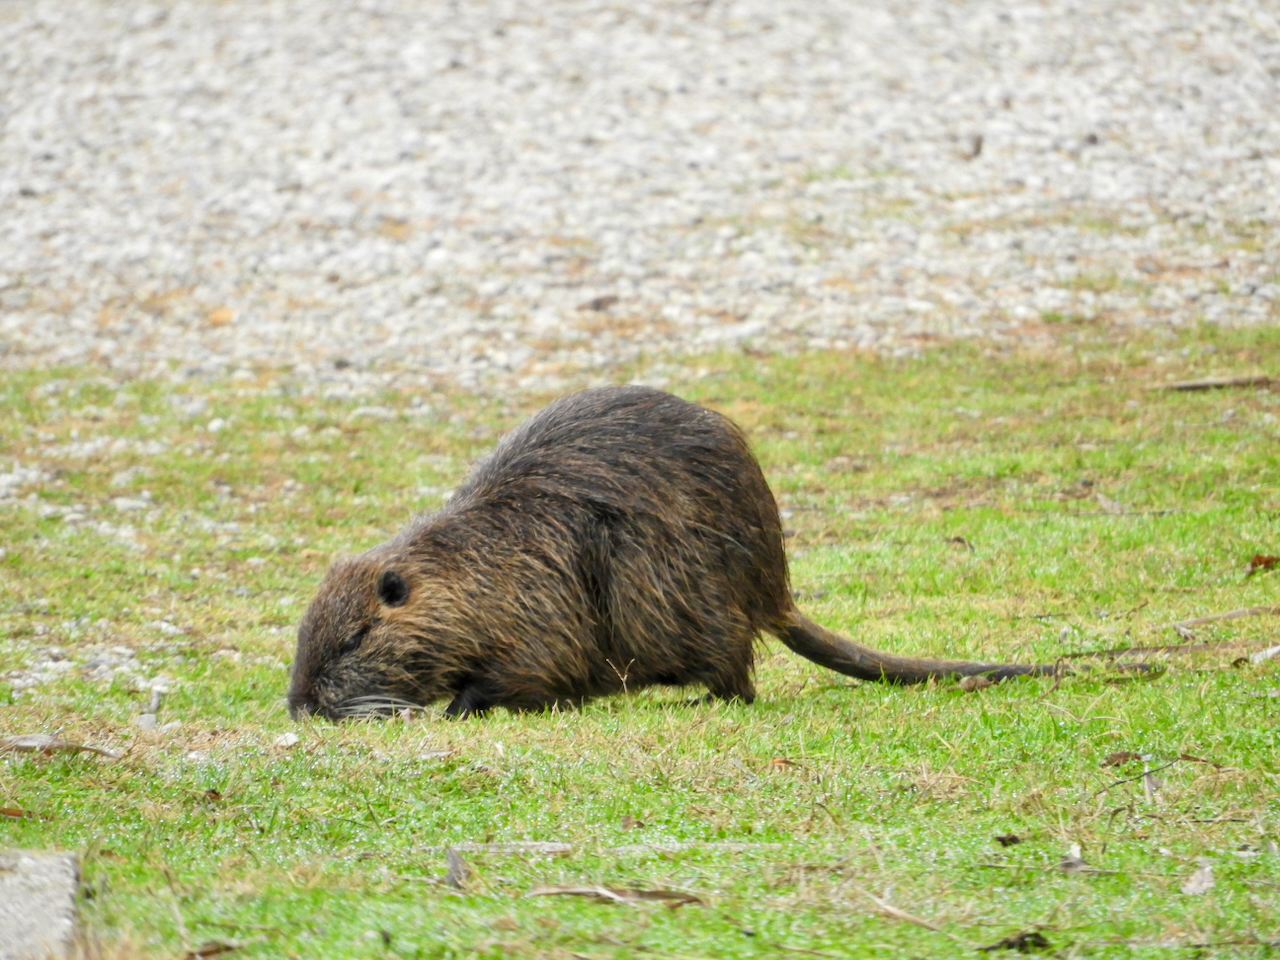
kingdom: Animalia
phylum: Chordata
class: Mammalia
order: Rodentia
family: Myocastoridae
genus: Myocastor
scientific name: Myocastor coypus
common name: Coypu
